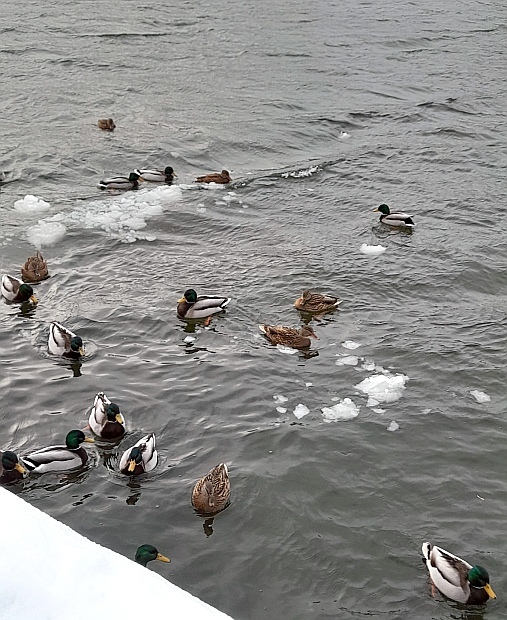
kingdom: Animalia
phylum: Chordata
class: Aves
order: Anseriformes
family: Anatidae
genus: Anas
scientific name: Anas platyrhynchos
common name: Mallard
